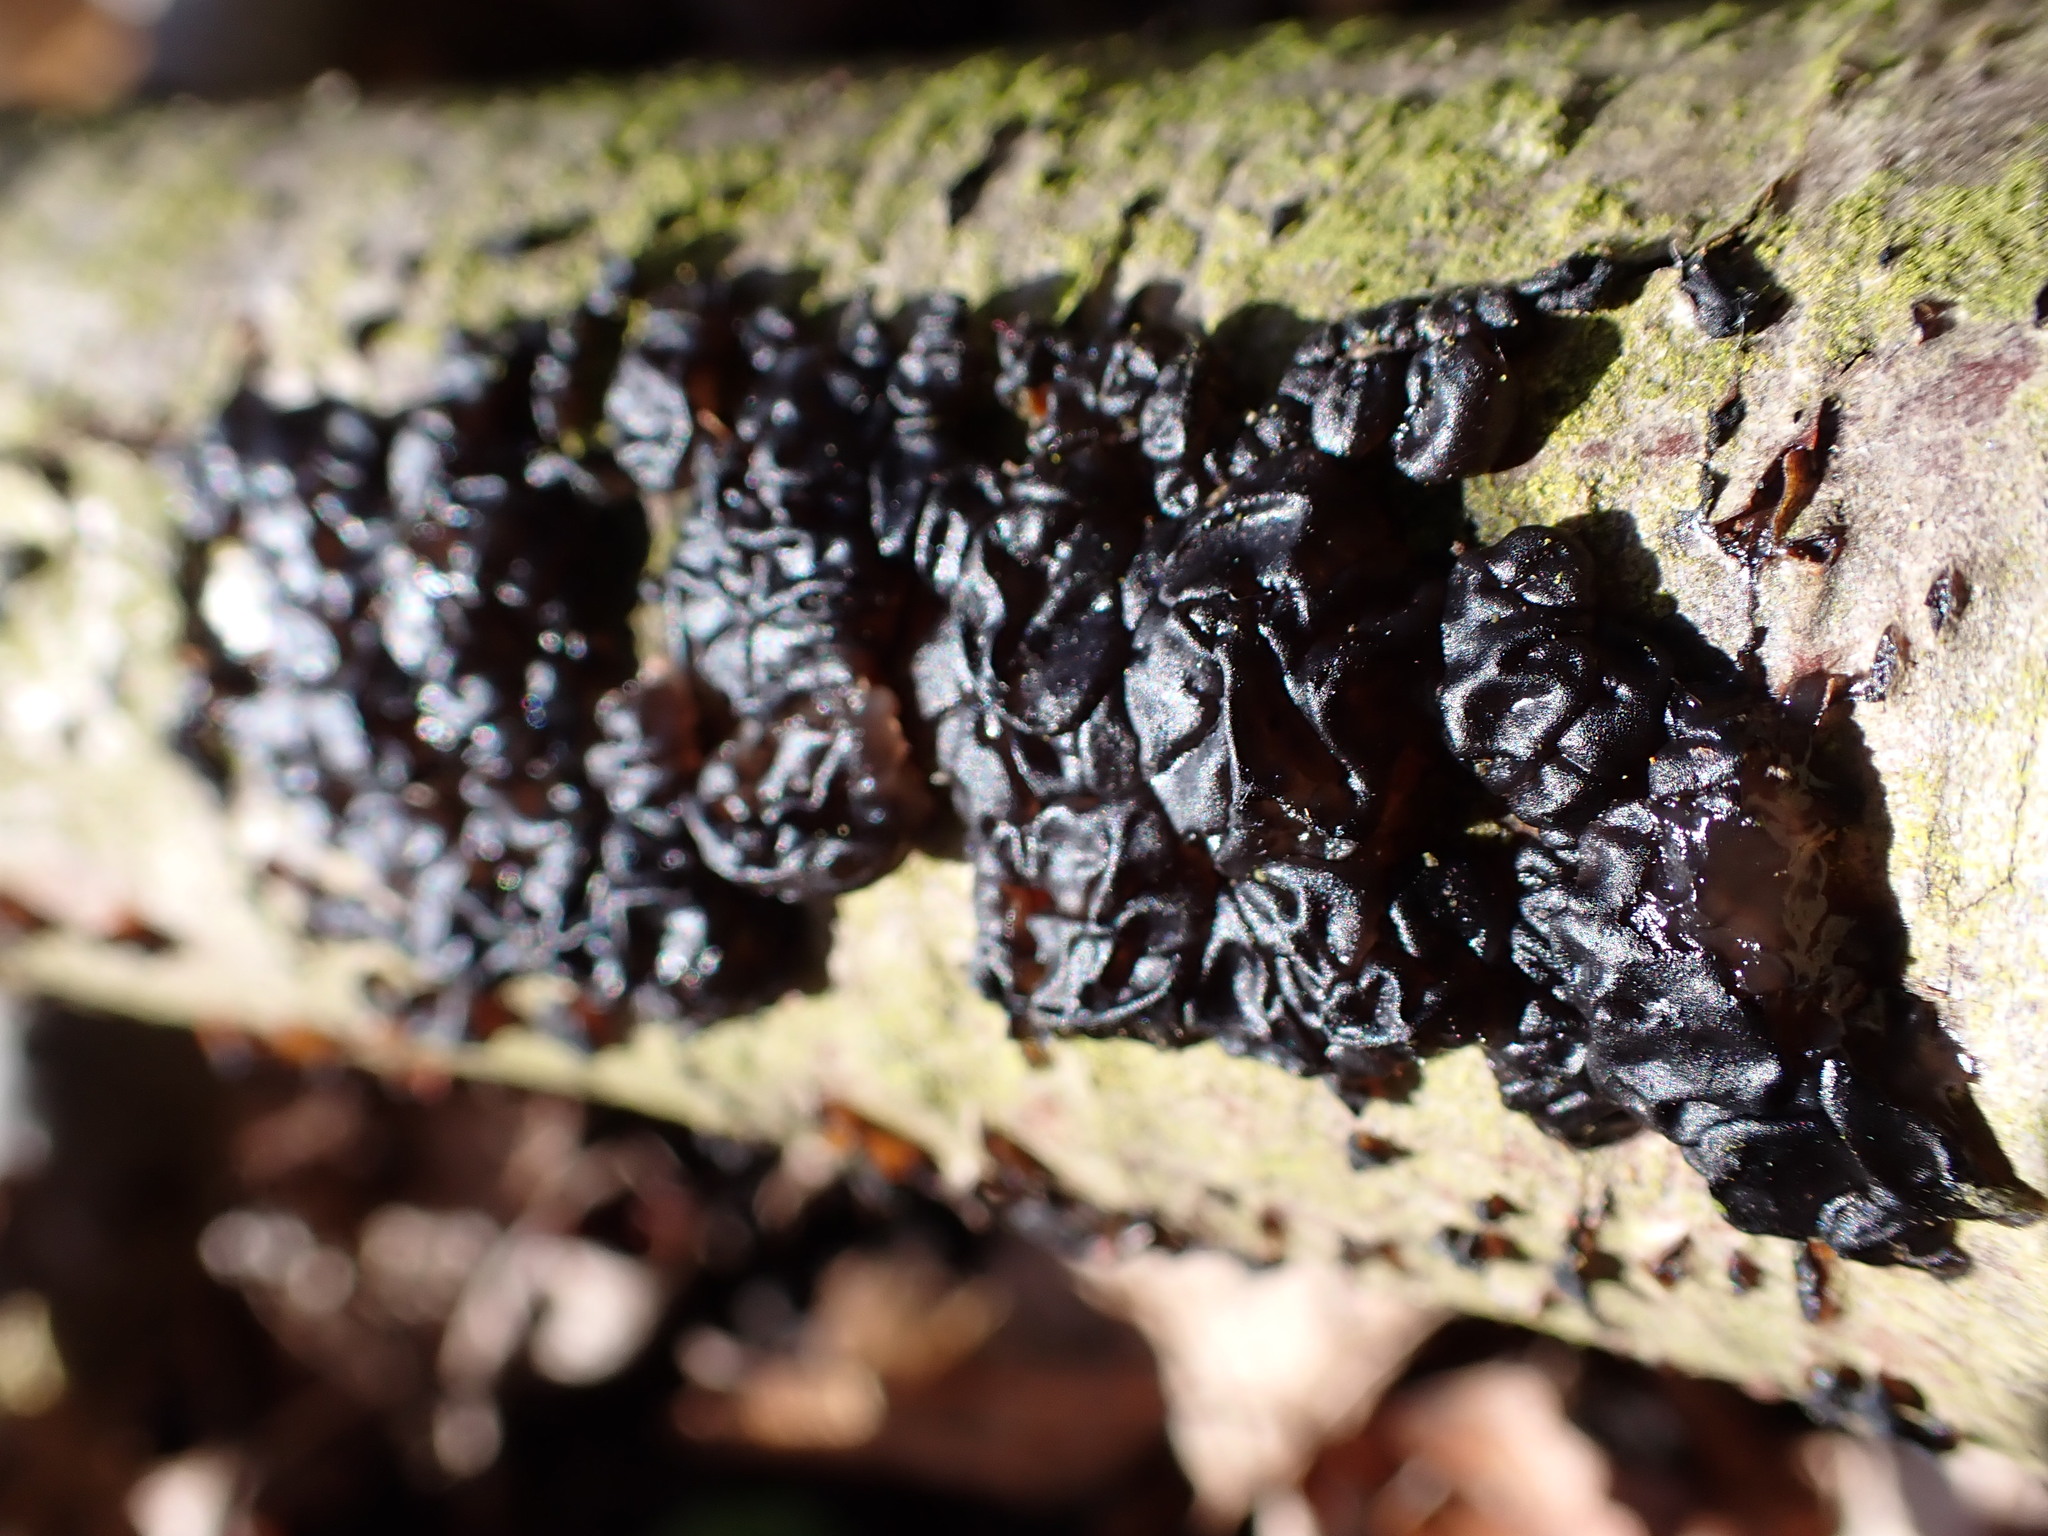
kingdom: Fungi
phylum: Basidiomycota
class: Agaricomycetes
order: Auriculariales
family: Auriculariaceae
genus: Exidia
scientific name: Exidia nigricans
